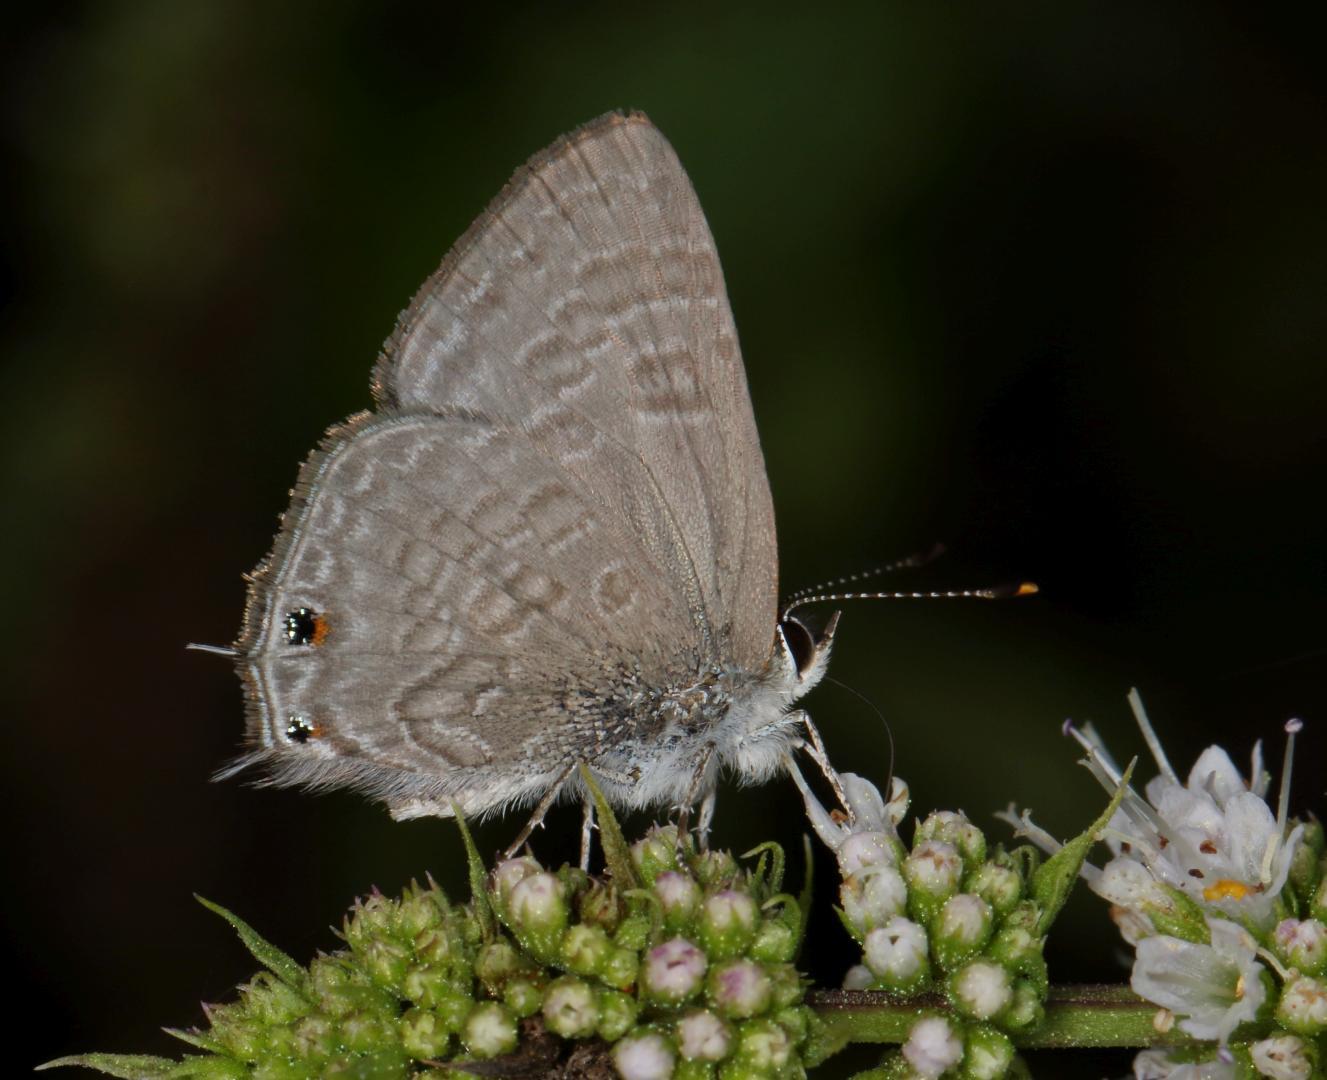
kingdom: Animalia
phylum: Arthropoda
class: Insecta
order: Lepidoptera
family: Lycaenidae
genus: Anthene
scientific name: Anthene definita
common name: Common ciliate blue
